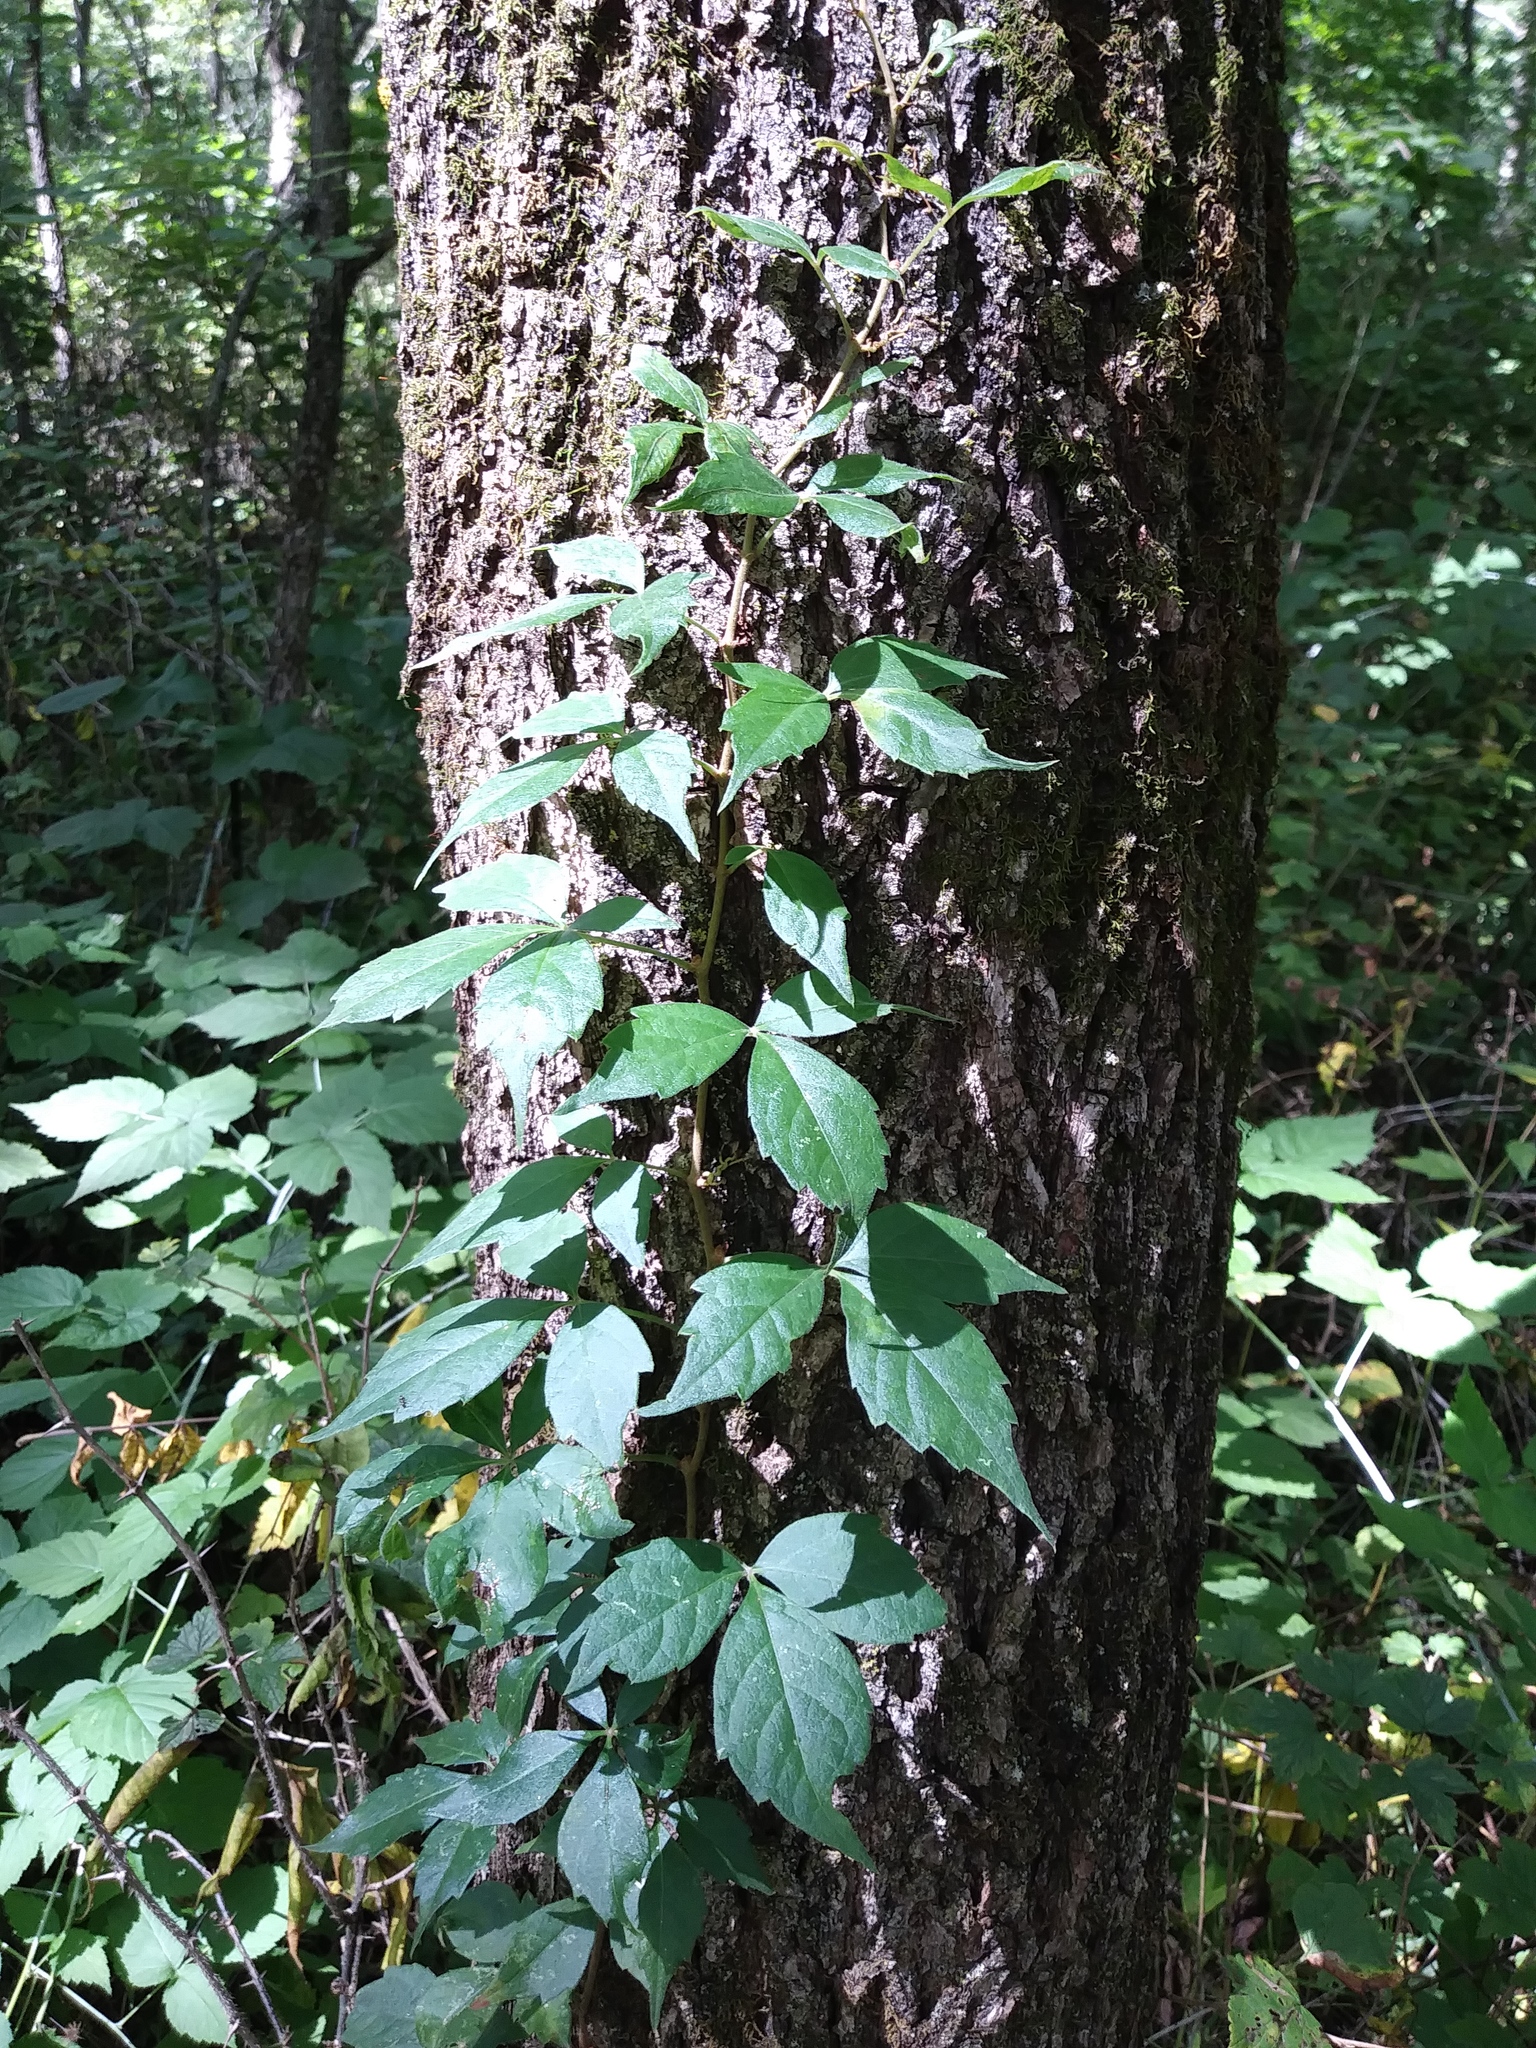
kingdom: Plantae
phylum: Tracheophyta
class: Magnoliopsida
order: Vitales
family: Vitaceae
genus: Parthenocissus
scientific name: Parthenocissus quinquefolia
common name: Virginia-creeper
